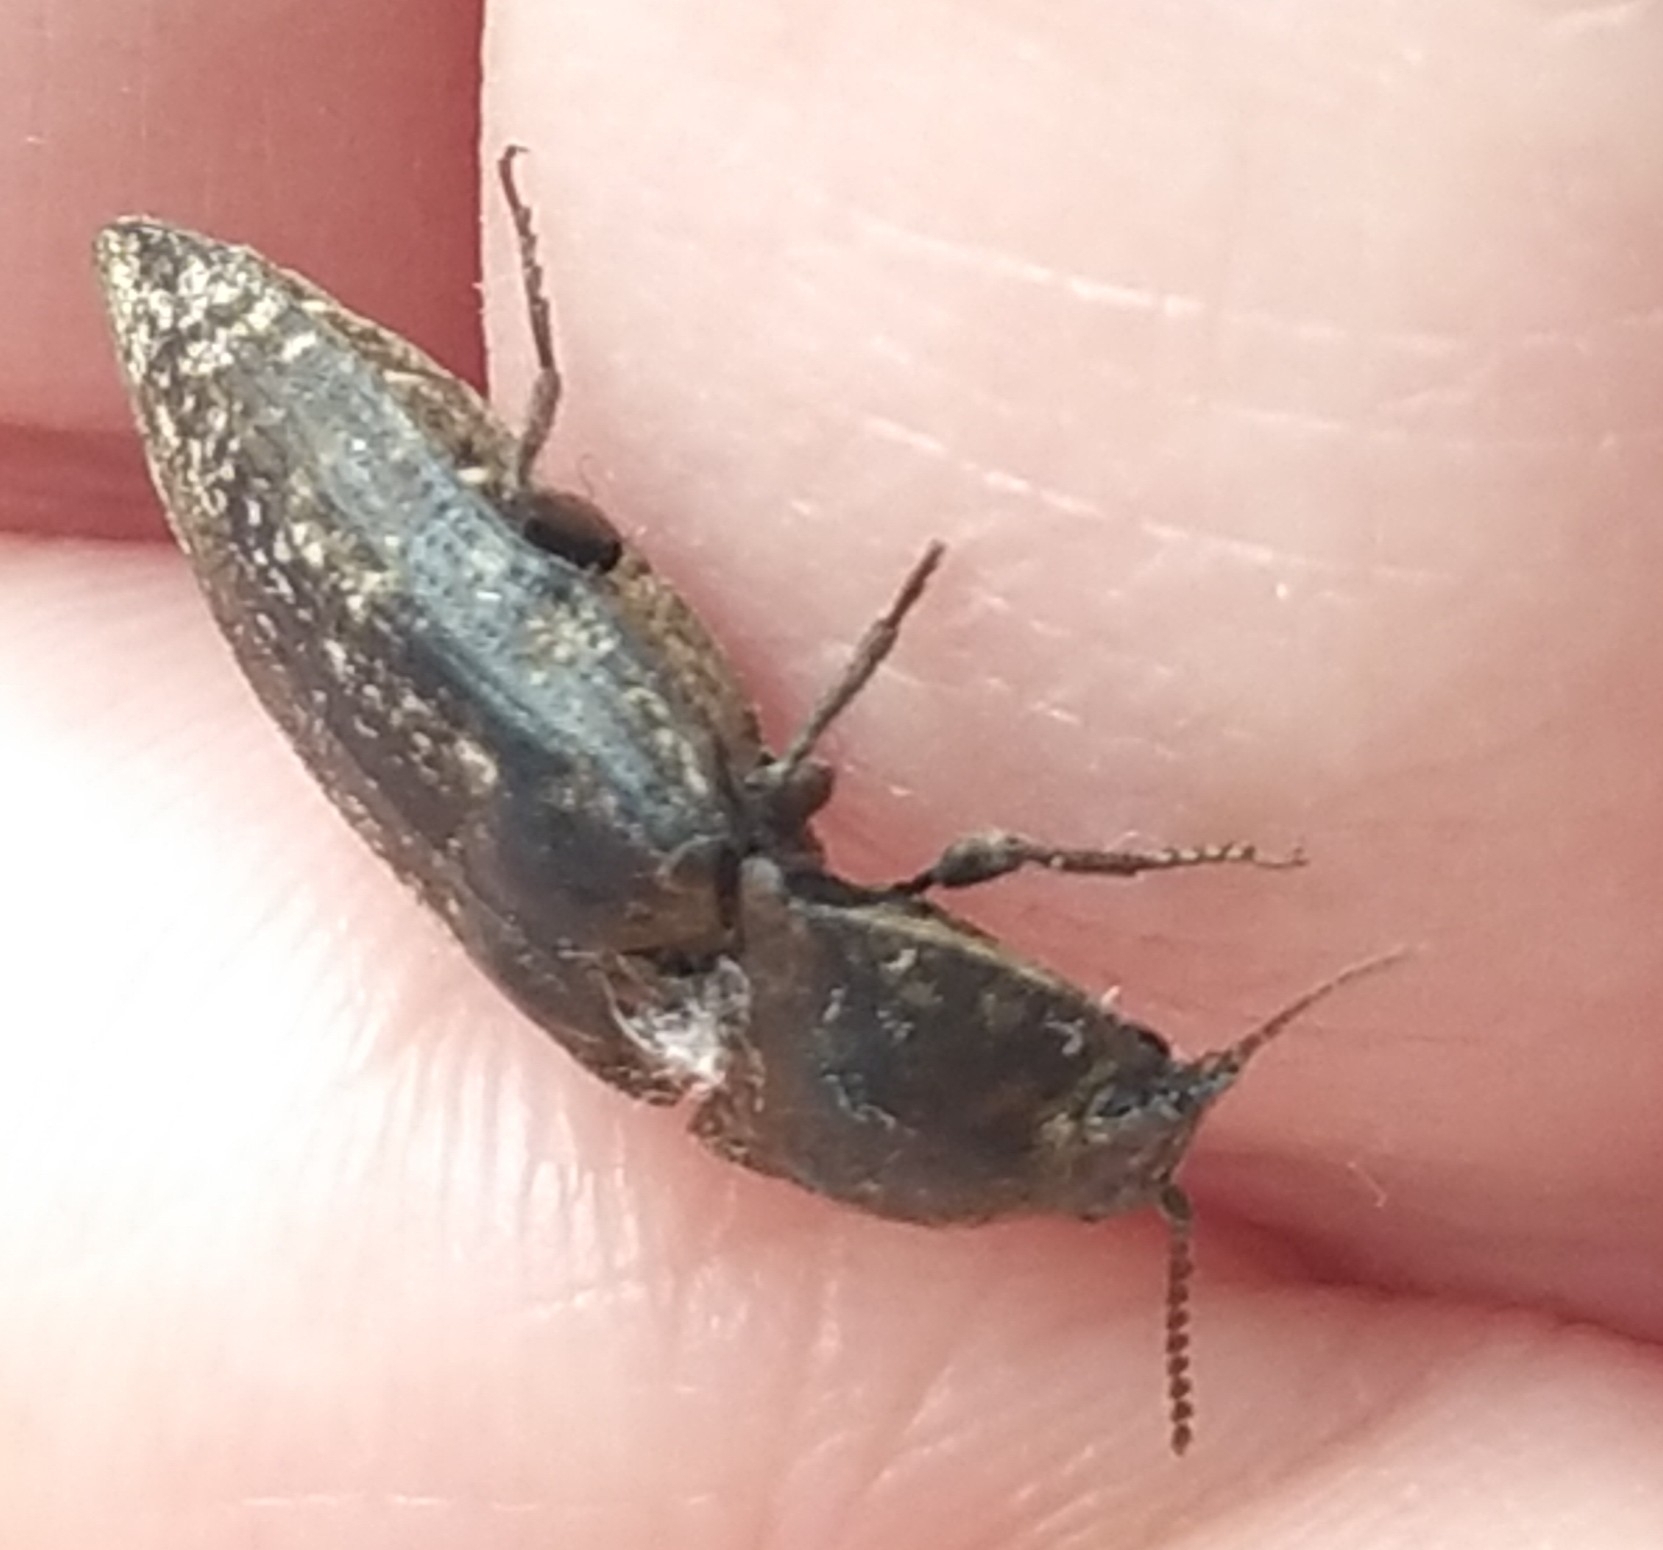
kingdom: Animalia
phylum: Arthropoda
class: Insecta
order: Coleoptera
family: Elateridae
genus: Agrypnus
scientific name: Agrypnus murinus
